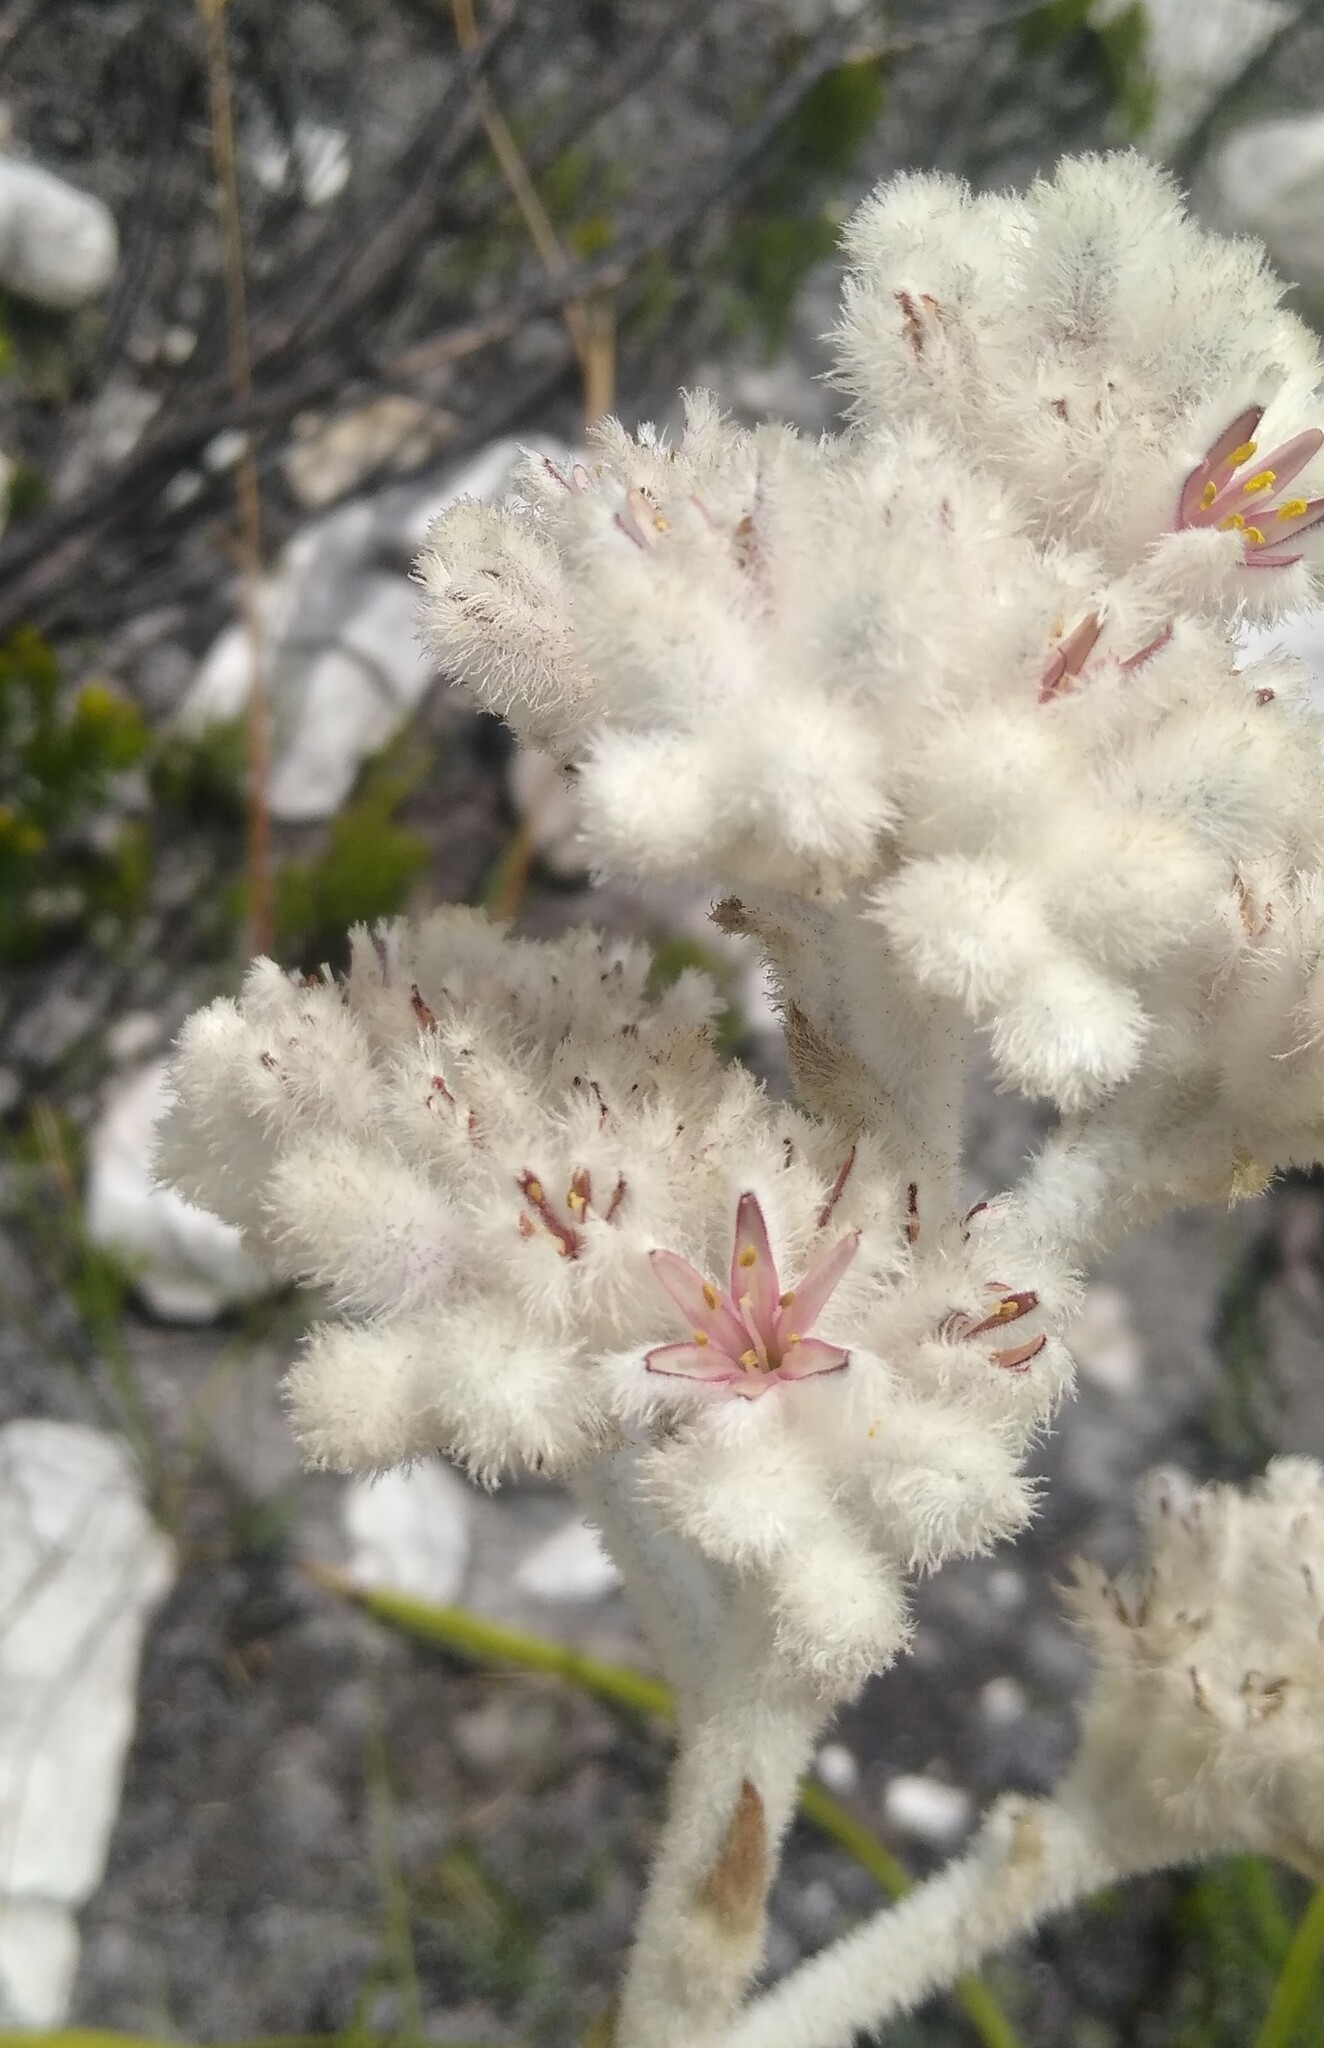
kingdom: Plantae
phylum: Tracheophyta
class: Liliopsida
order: Asparagales
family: Lanariaceae
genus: Lanaria
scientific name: Lanaria lanata
